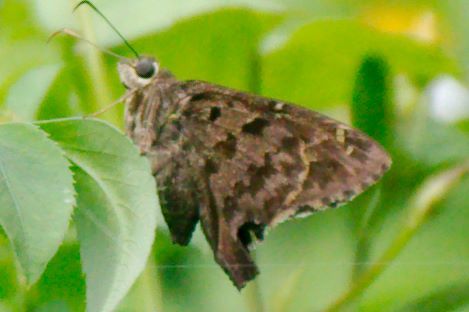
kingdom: Animalia
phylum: Arthropoda
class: Insecta
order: Lepidoptera
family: Hesperiidae
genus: Thorybes
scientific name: Thorybes
